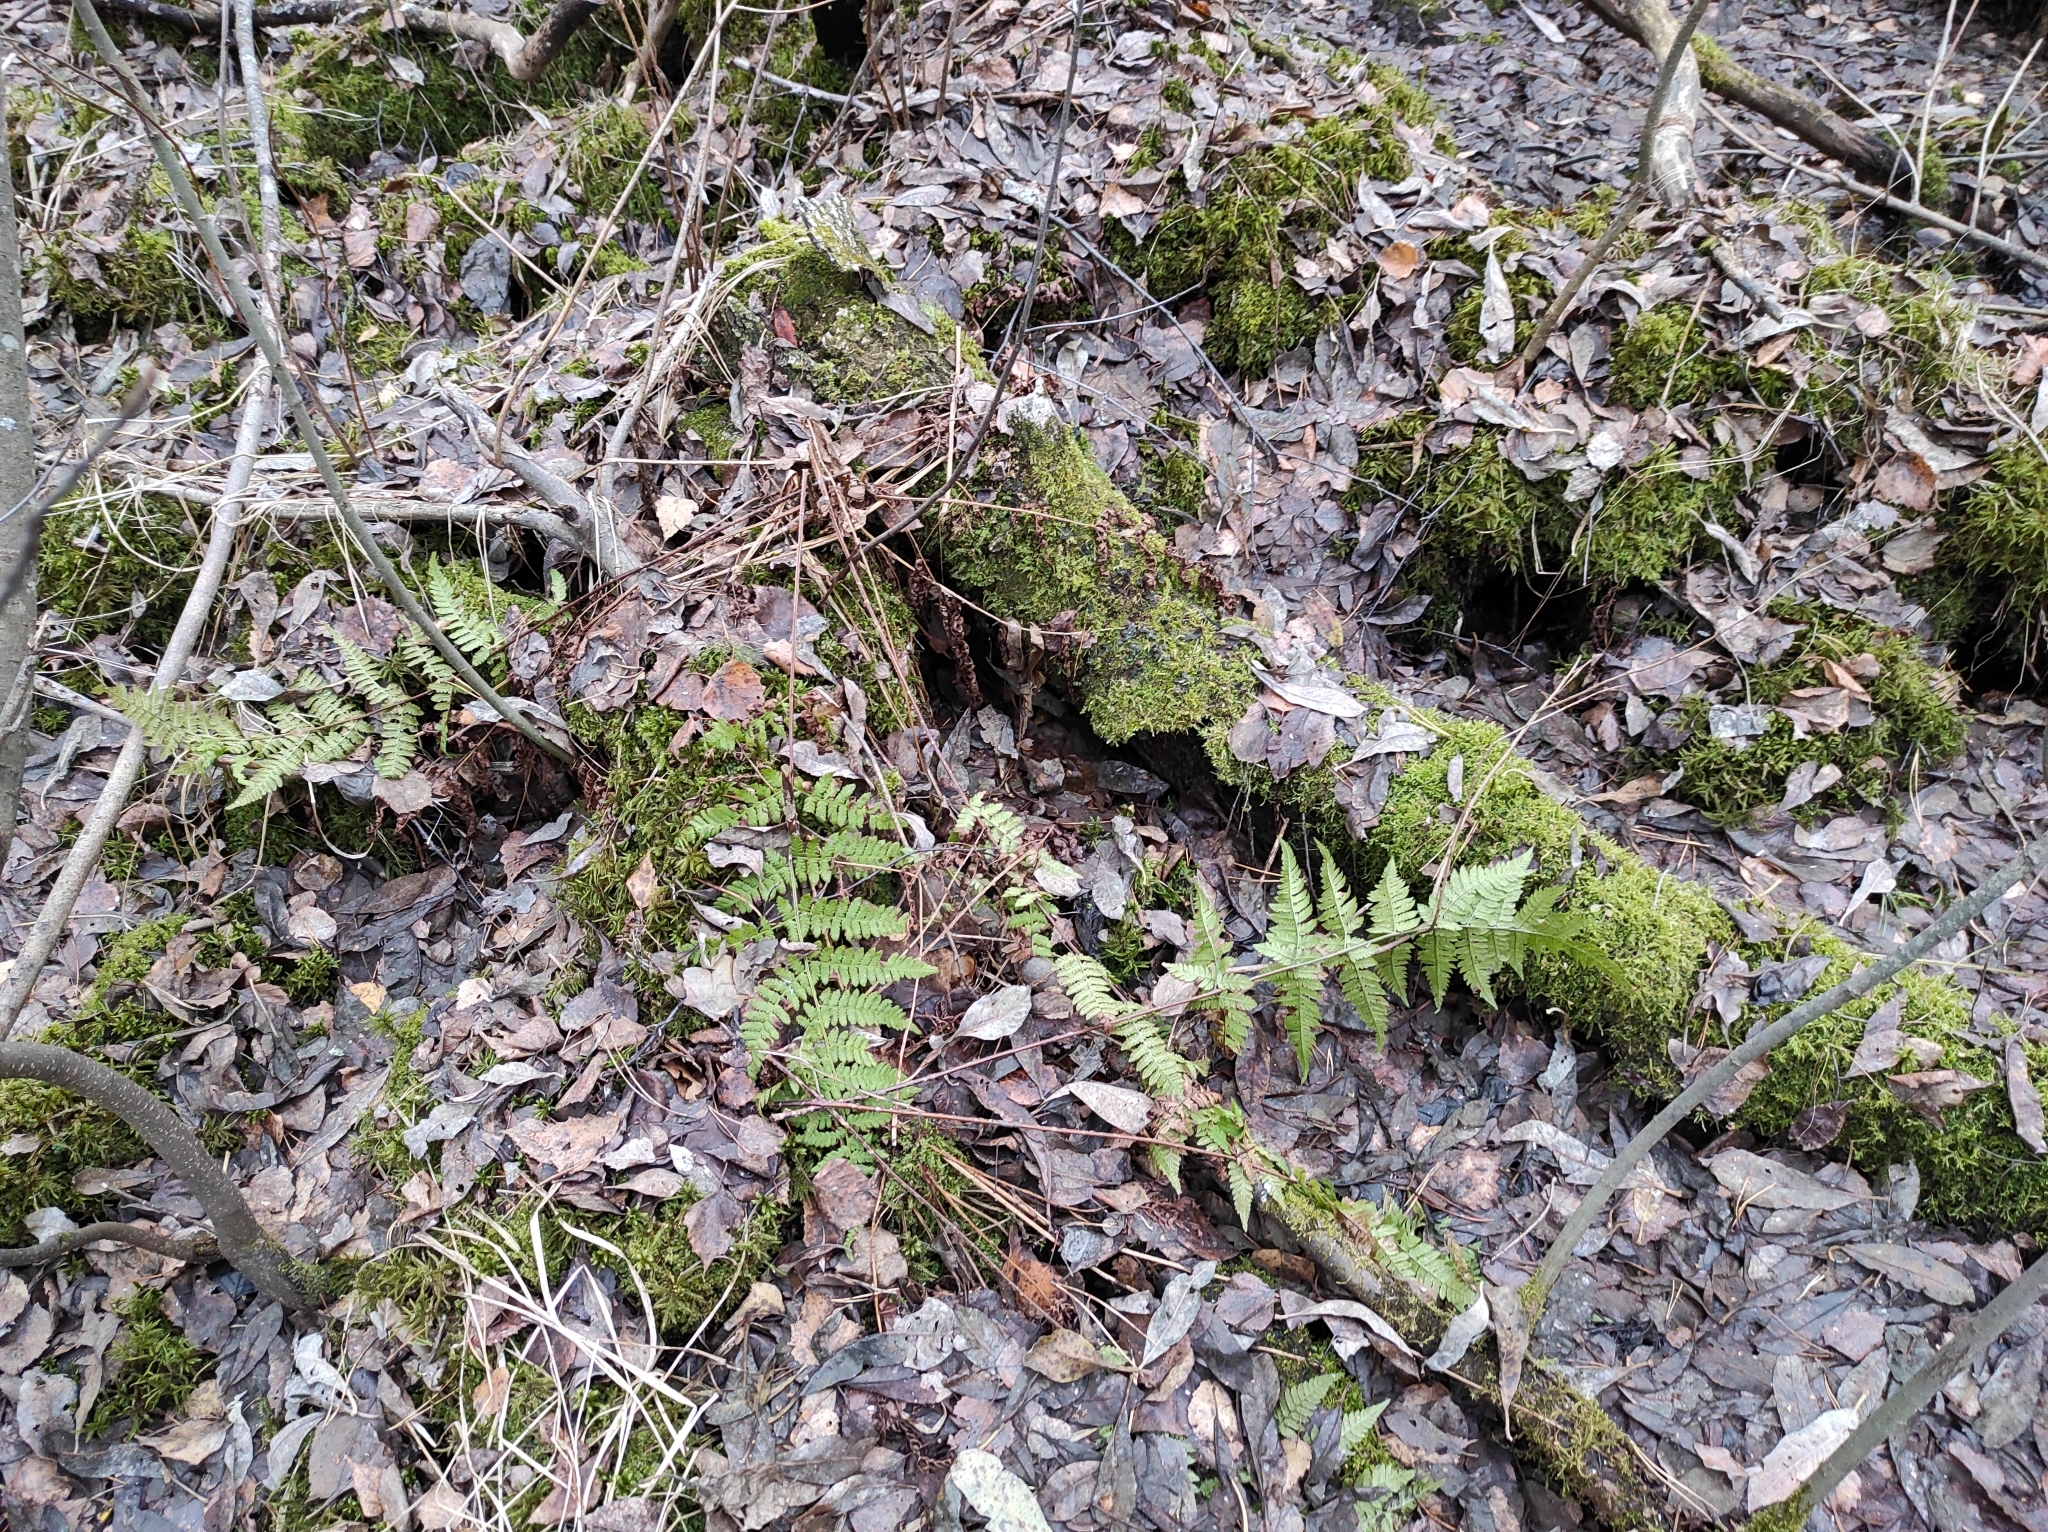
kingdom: Plantae
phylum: Tracheophyta
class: Polypodiopsida
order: Polypodiales
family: Dryopteridaceae
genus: Dryopteris
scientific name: Dryopteris carthusiana
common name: Narrow buckler-fern
